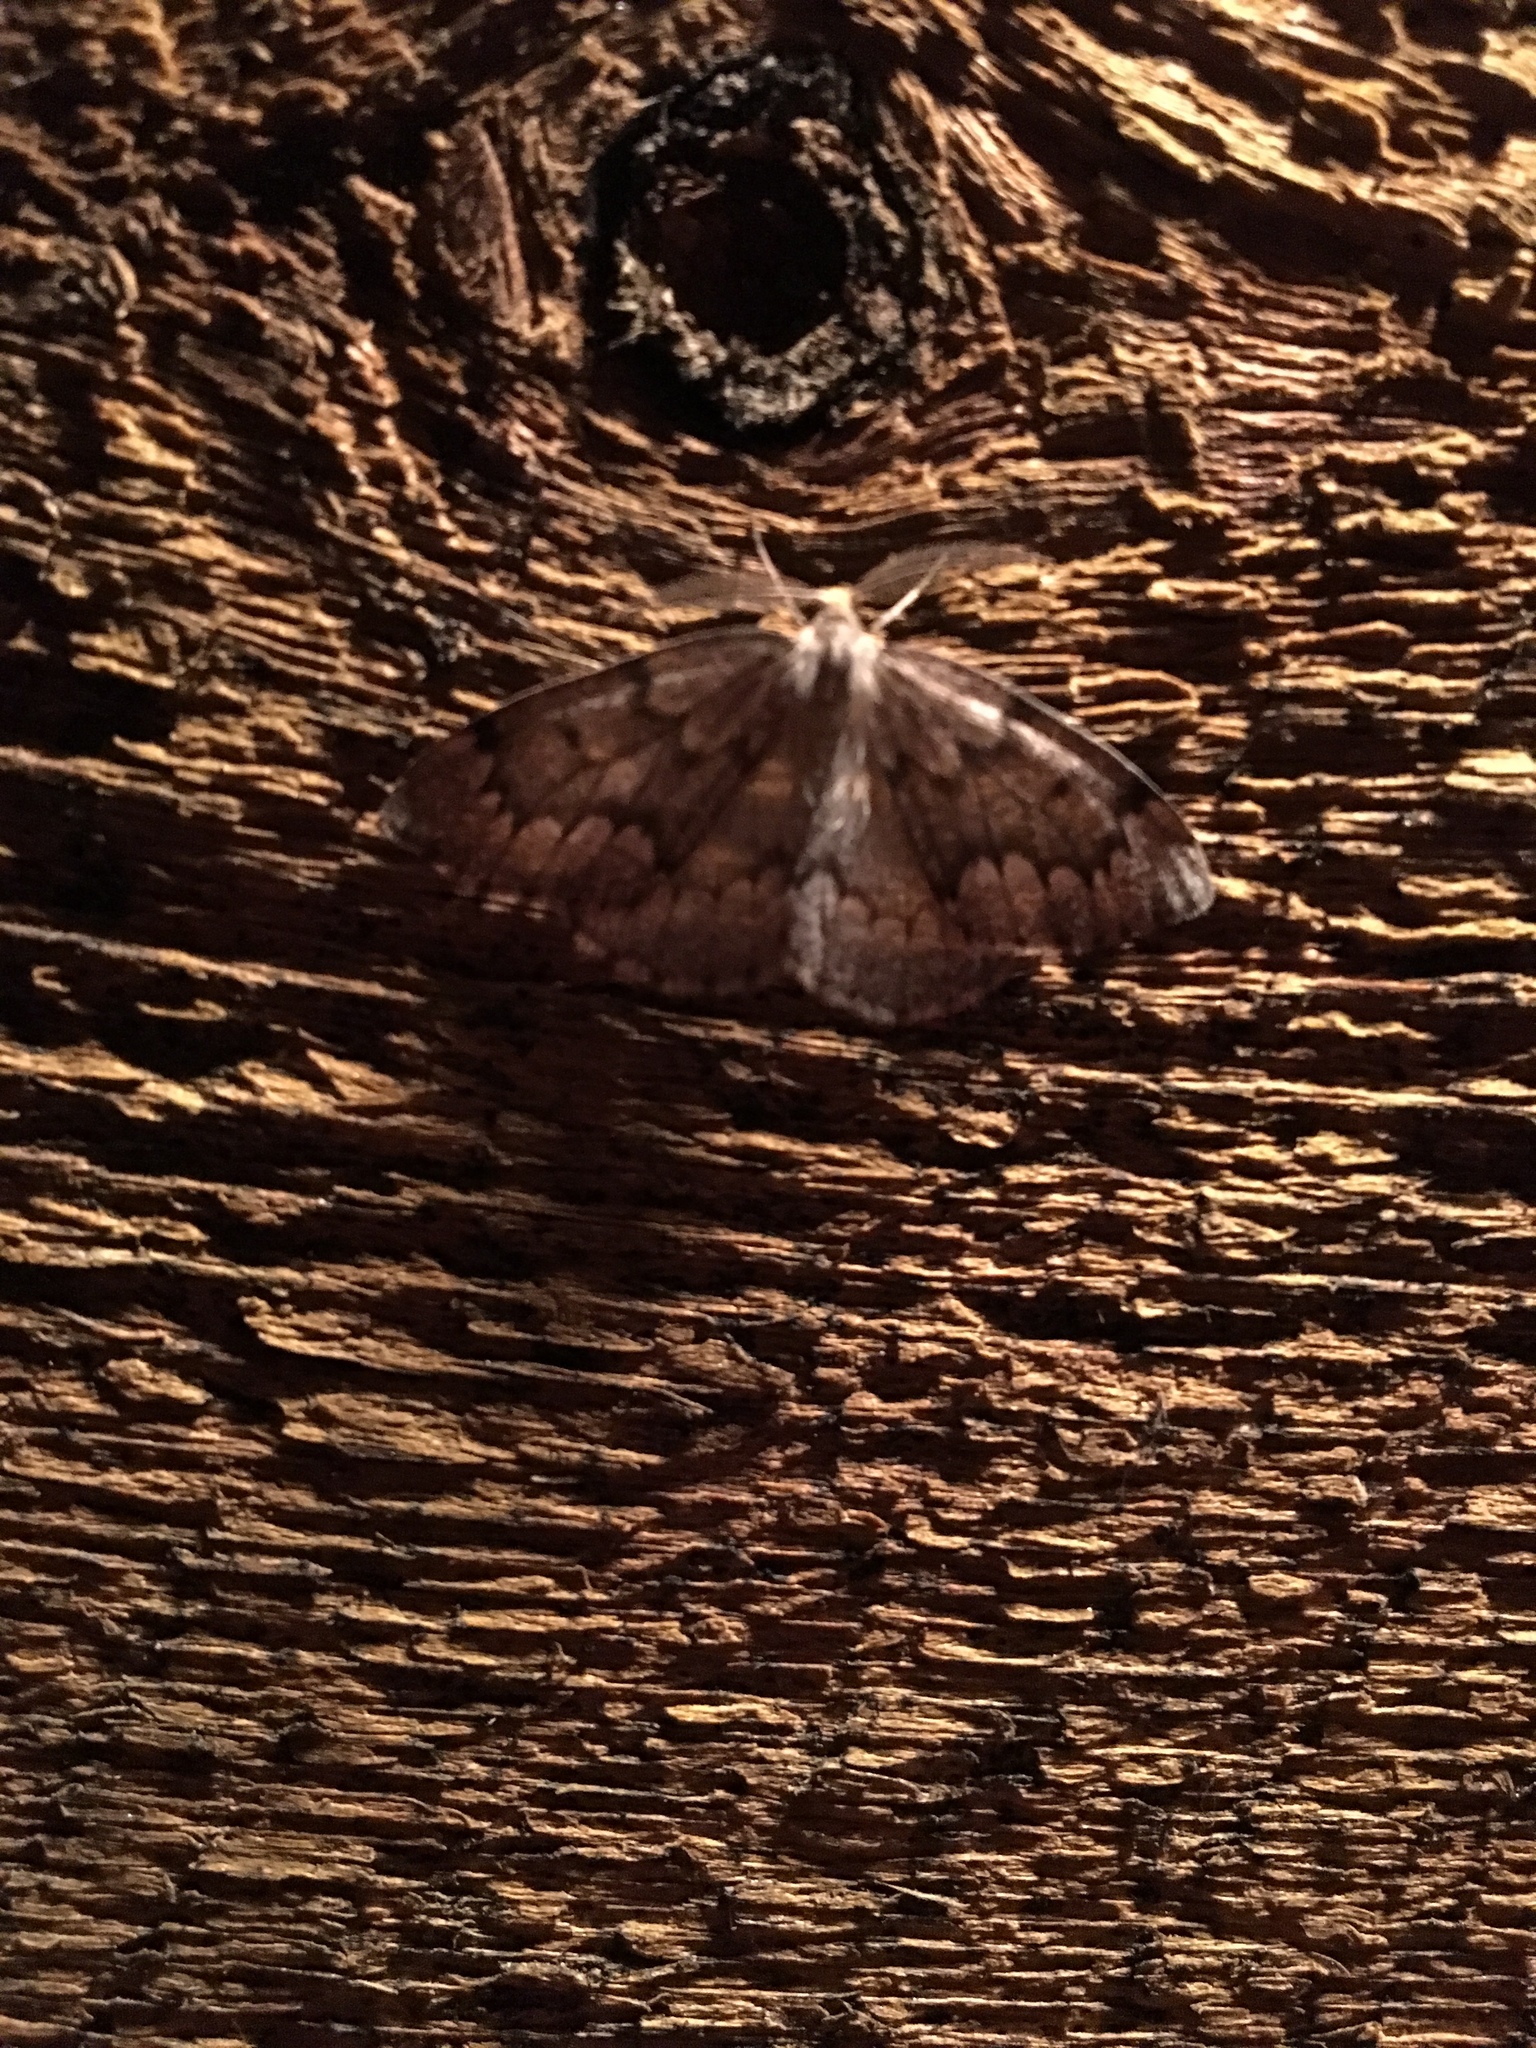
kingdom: Animalia
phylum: Arthropoda
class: Insecta
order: Lepidoptera
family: Geometridae
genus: Nepytia
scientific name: Nepytia canosaria
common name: False hemlock looper
